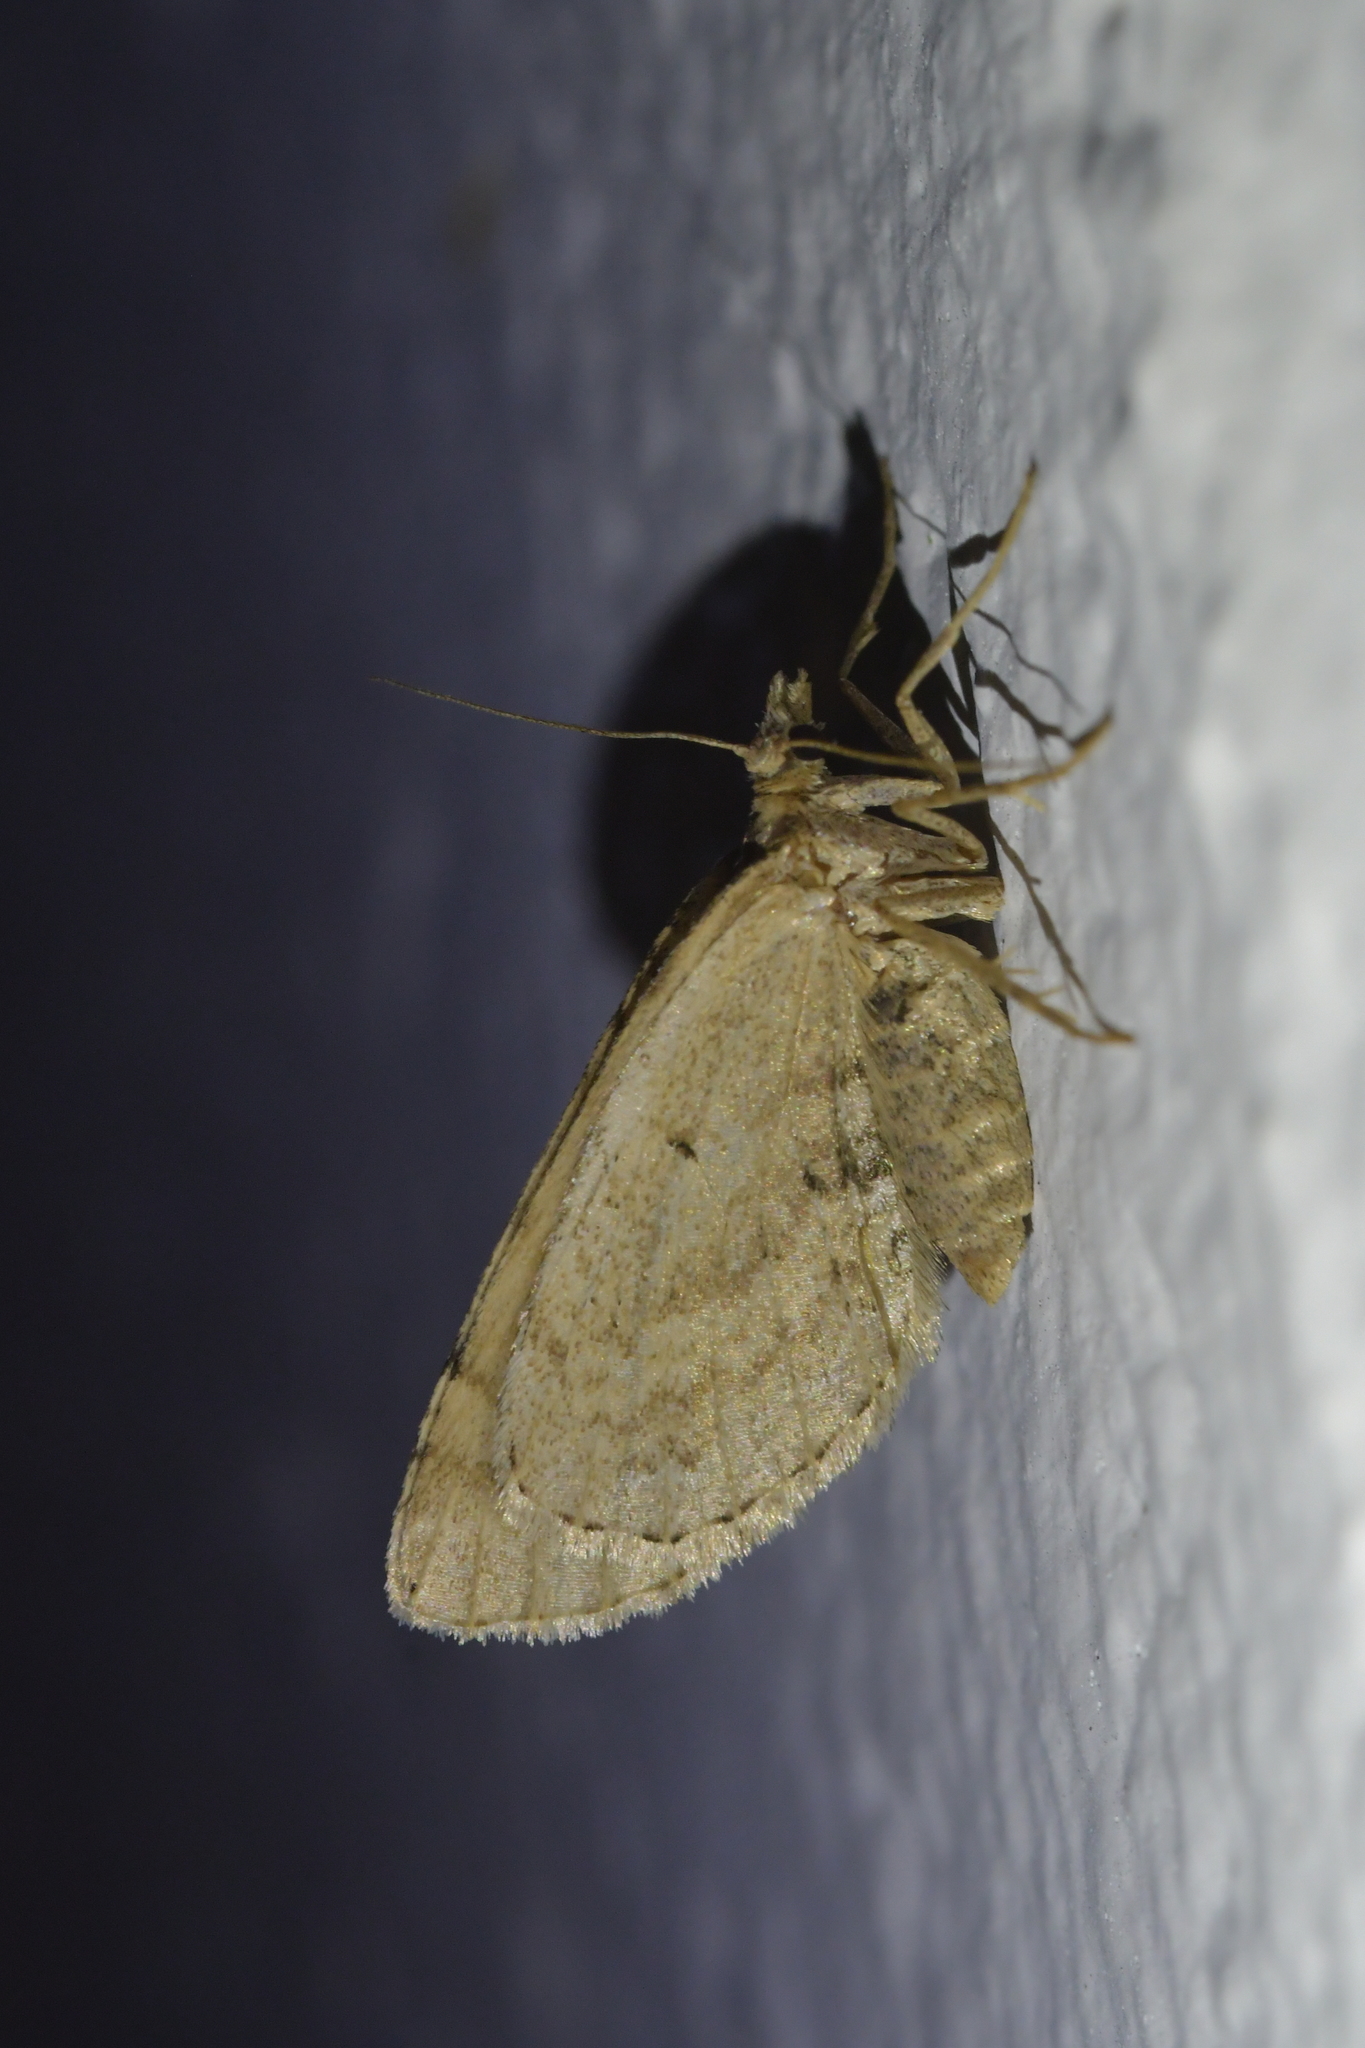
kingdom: Animalia
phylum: Arthropoda
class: Insecta
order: Lepidoptera
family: Geometridae
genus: Asaphodes
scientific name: Asaphodes aegrota
